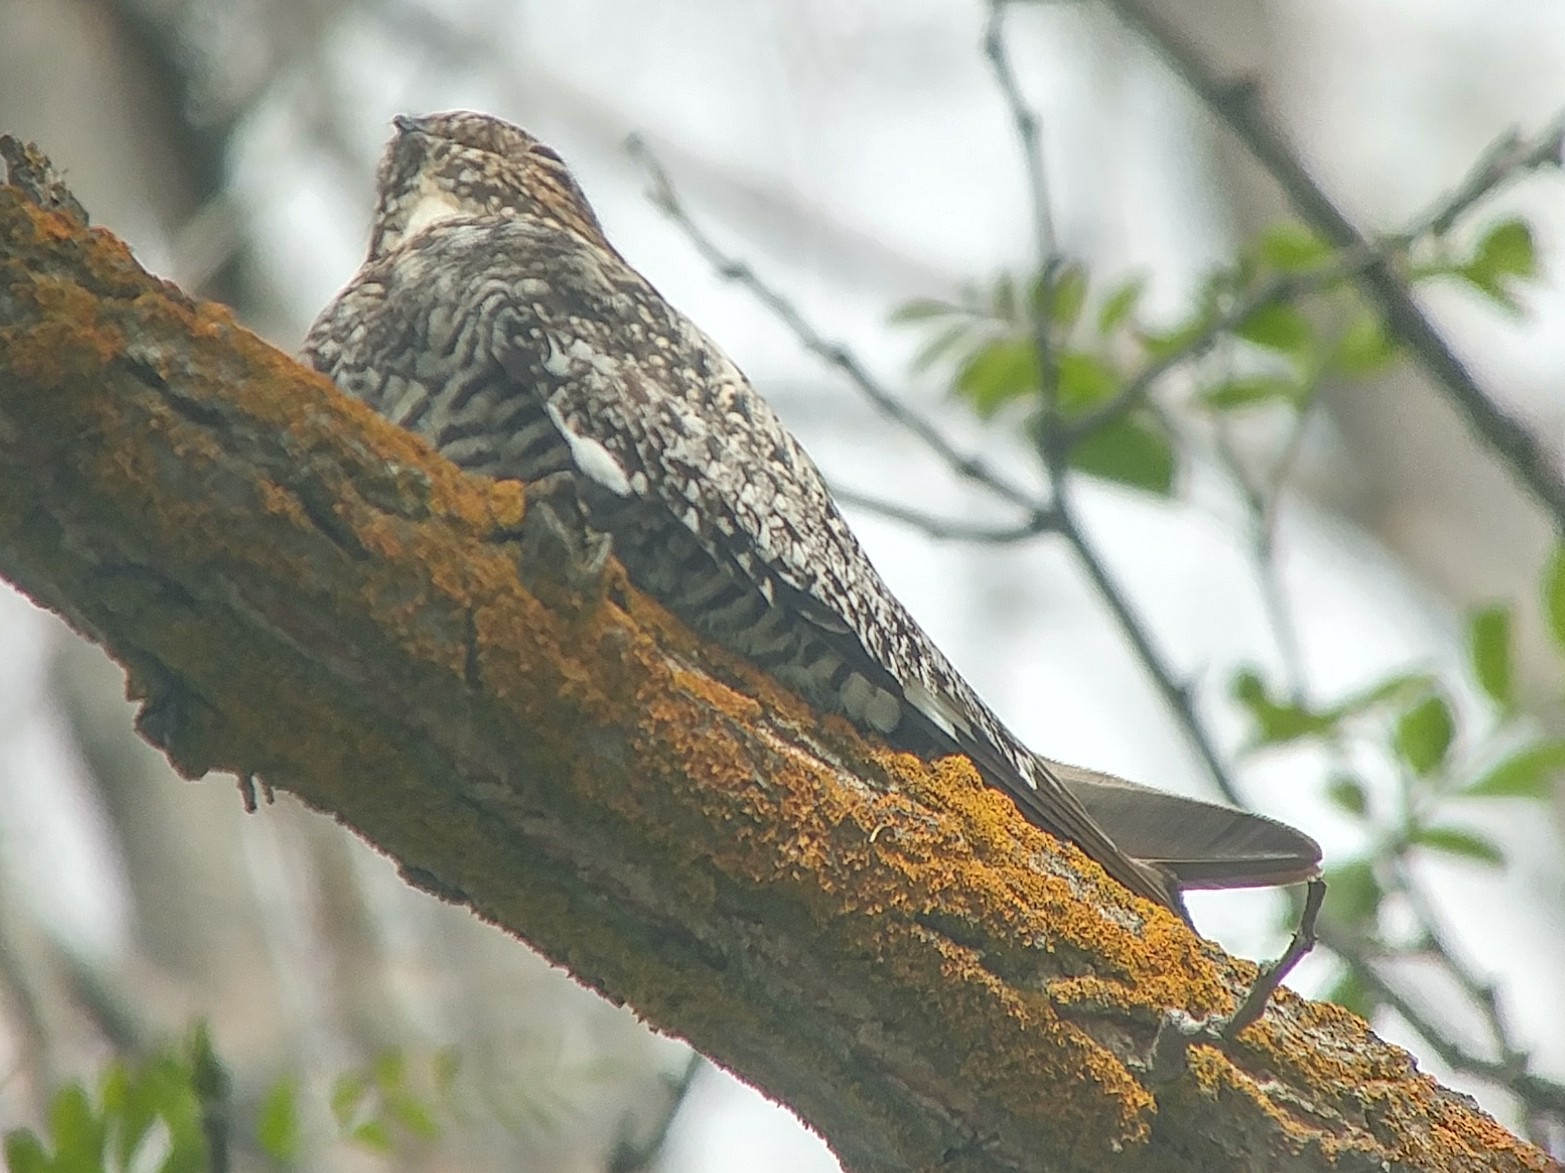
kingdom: Animalia
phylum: Chordata
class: Aves
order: Caprimulgiformes
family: Caprimulgidae
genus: Chordeiles
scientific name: Chordeiles minor
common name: Common nighthawk
